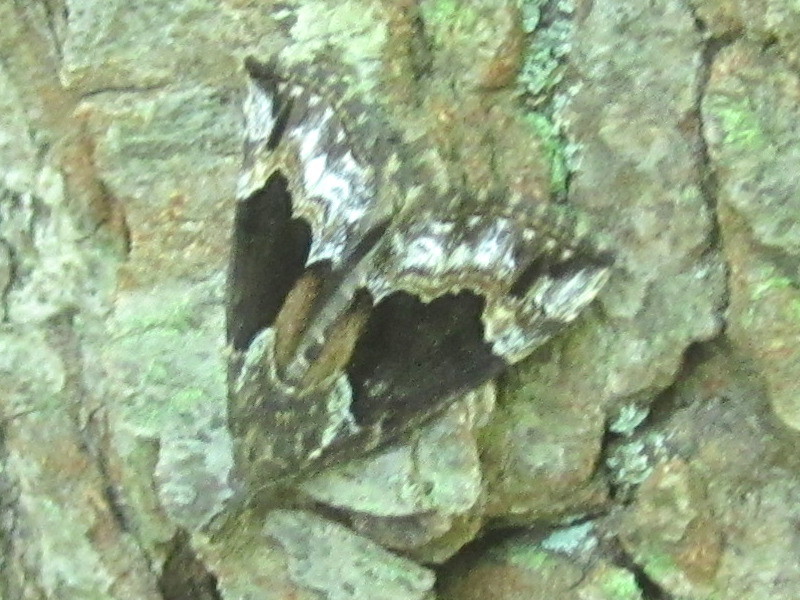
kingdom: Animalia
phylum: Arthropoda
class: Insecta
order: Lepidoptera
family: Erebidae
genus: Hypena
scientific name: Hypena baltimoralis
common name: Baltimore snout
